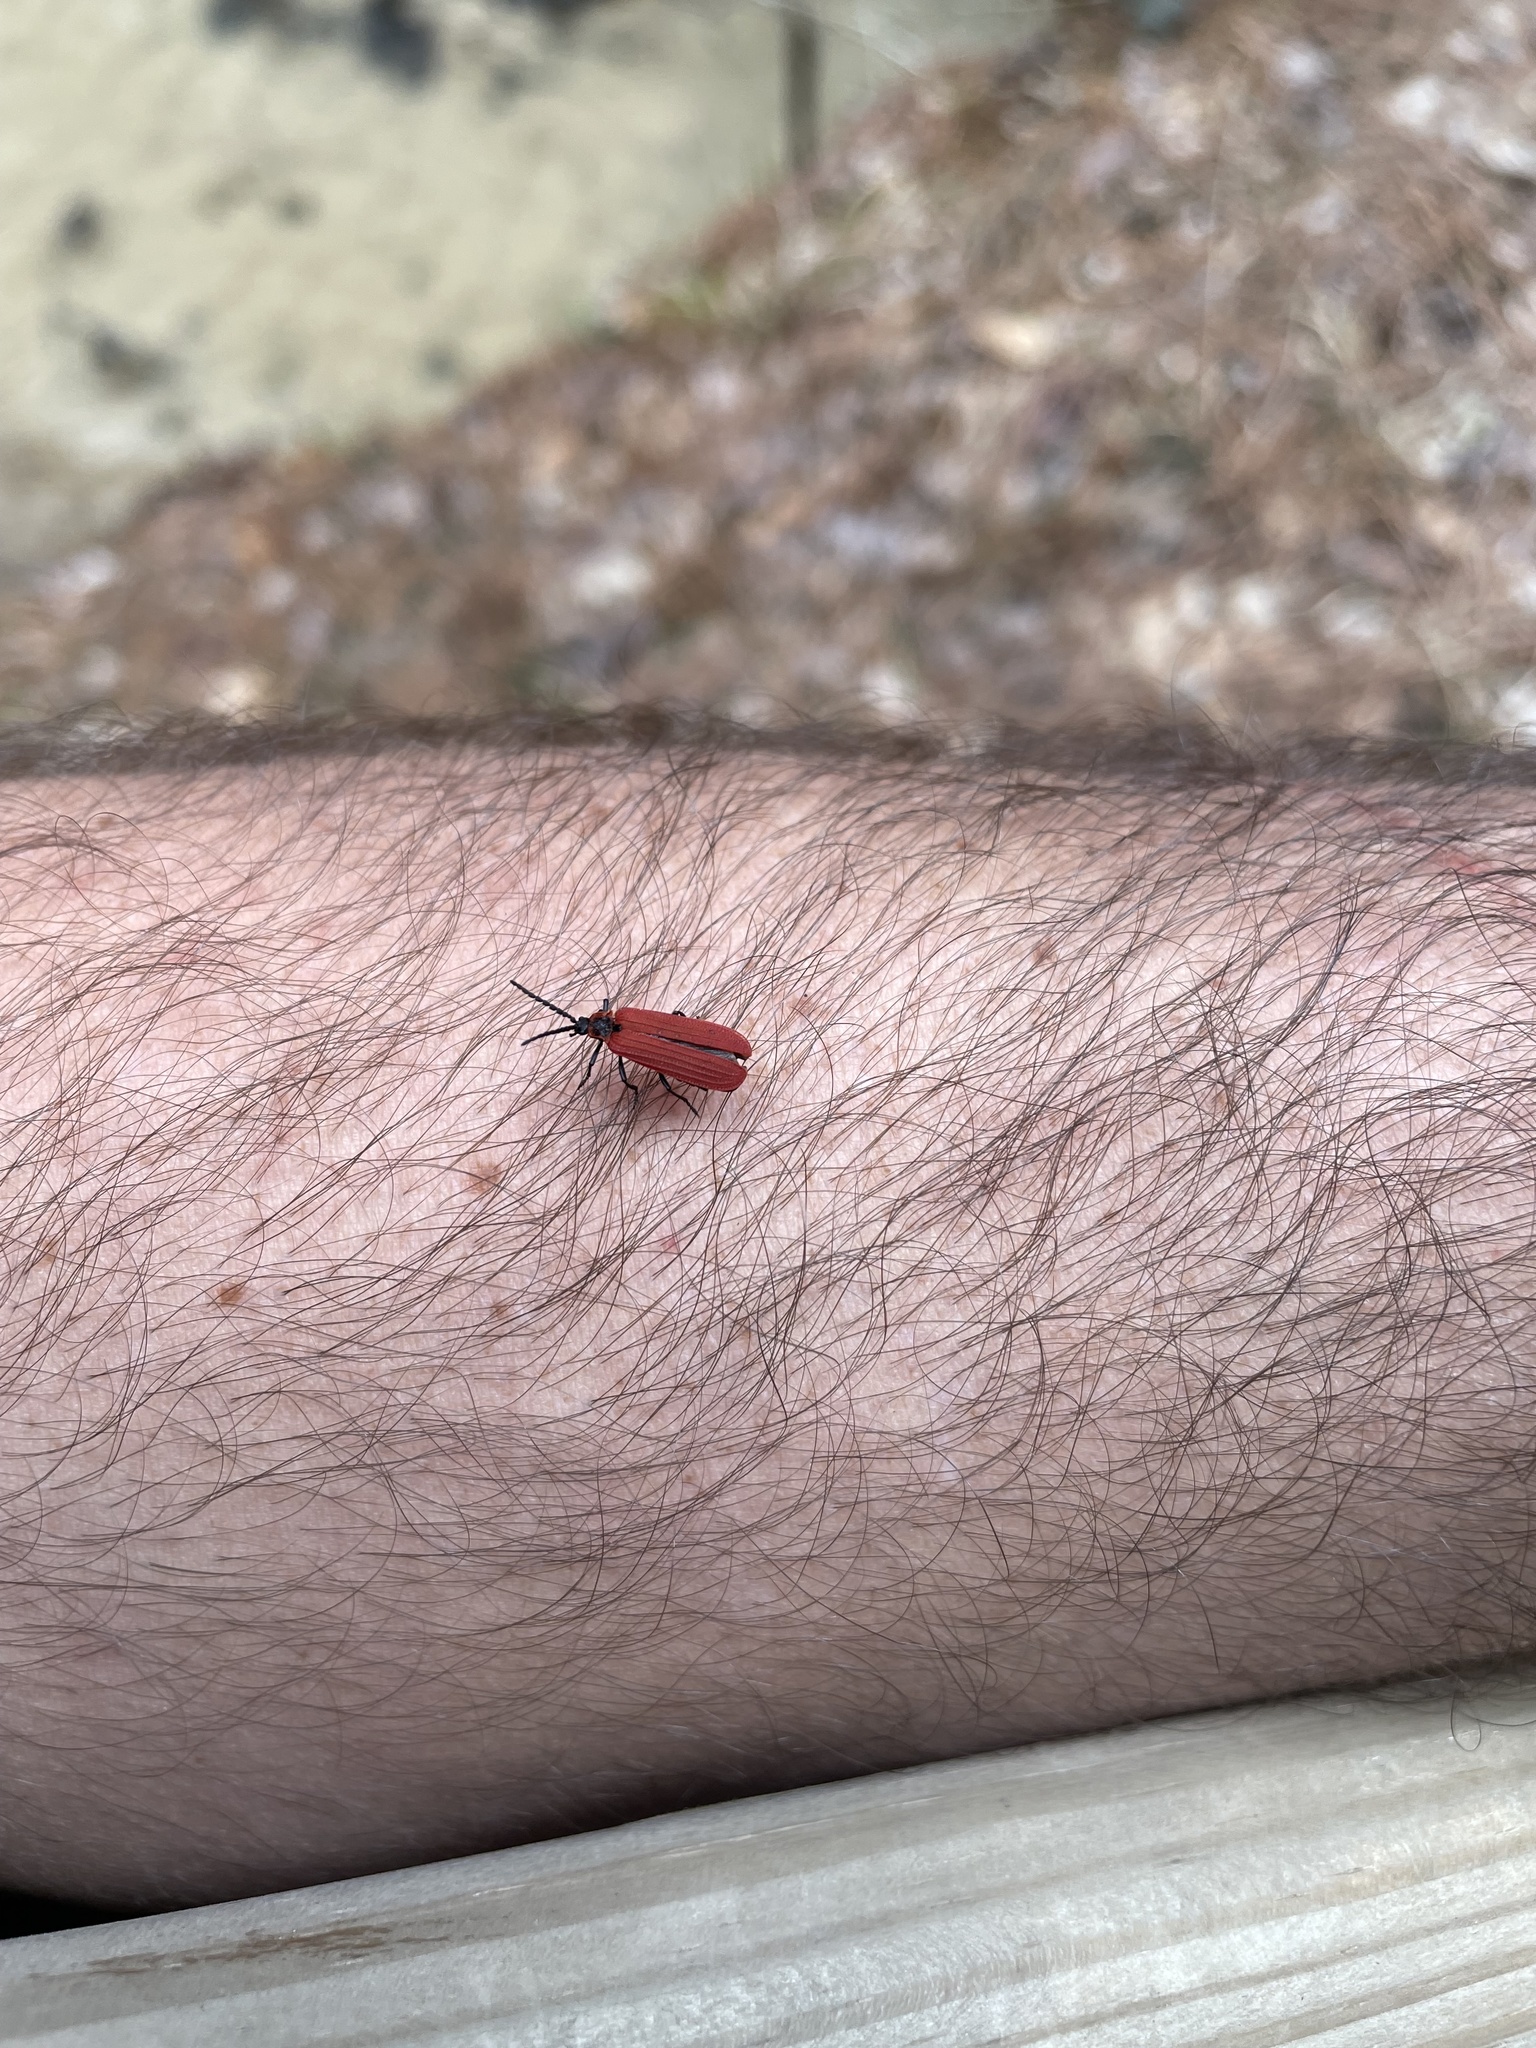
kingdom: Animalia
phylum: Arthropoda
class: Insecta
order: Coleoptera
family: Lycidae
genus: Dictyoptera
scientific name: Dictyoptera aurora
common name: Golden net-winged beetle
